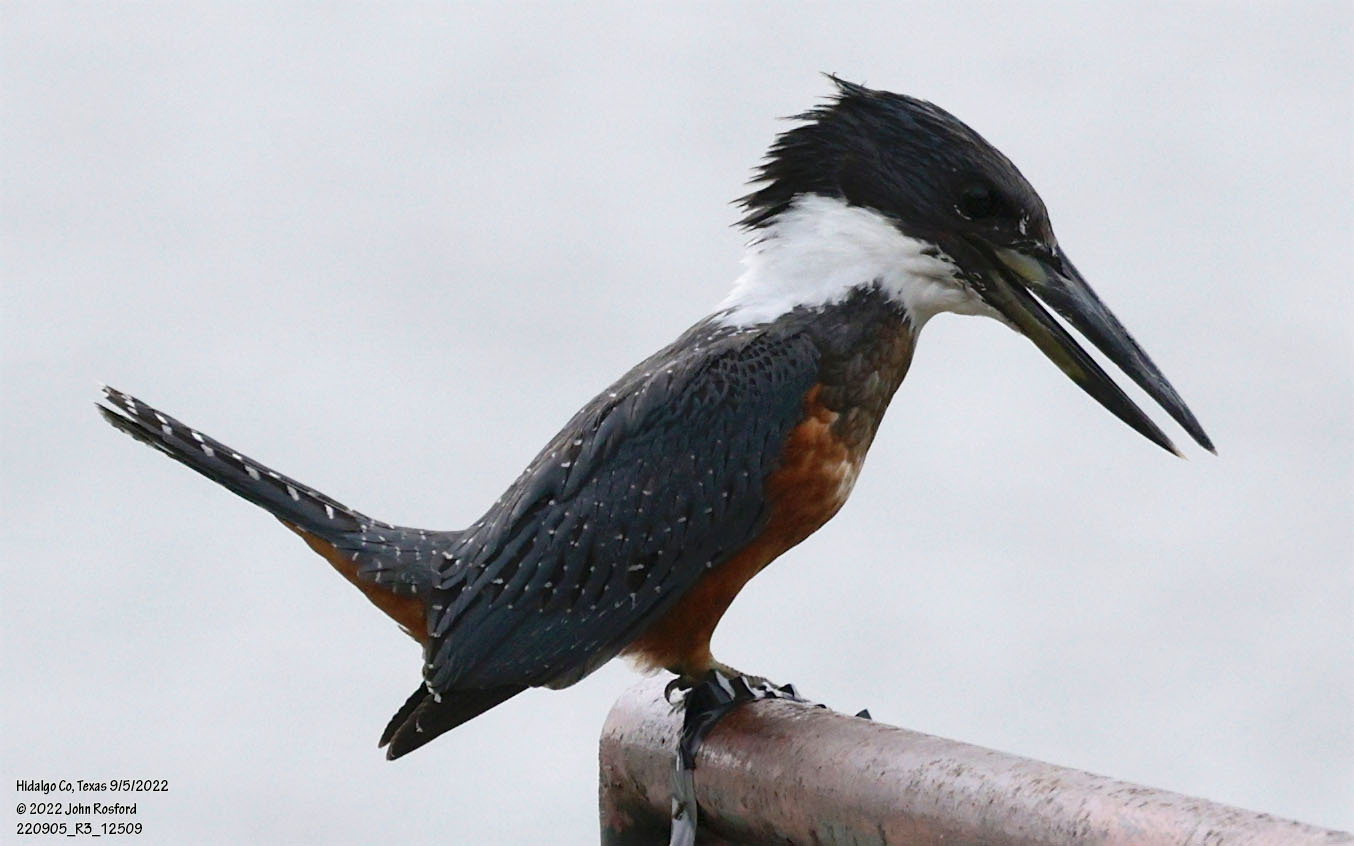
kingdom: Animalia
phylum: Chordata
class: Aves
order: Coraciiformes
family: Alcedinidae
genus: Megaceryle
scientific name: Megaceryle torquata
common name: Ringed kingfisher
